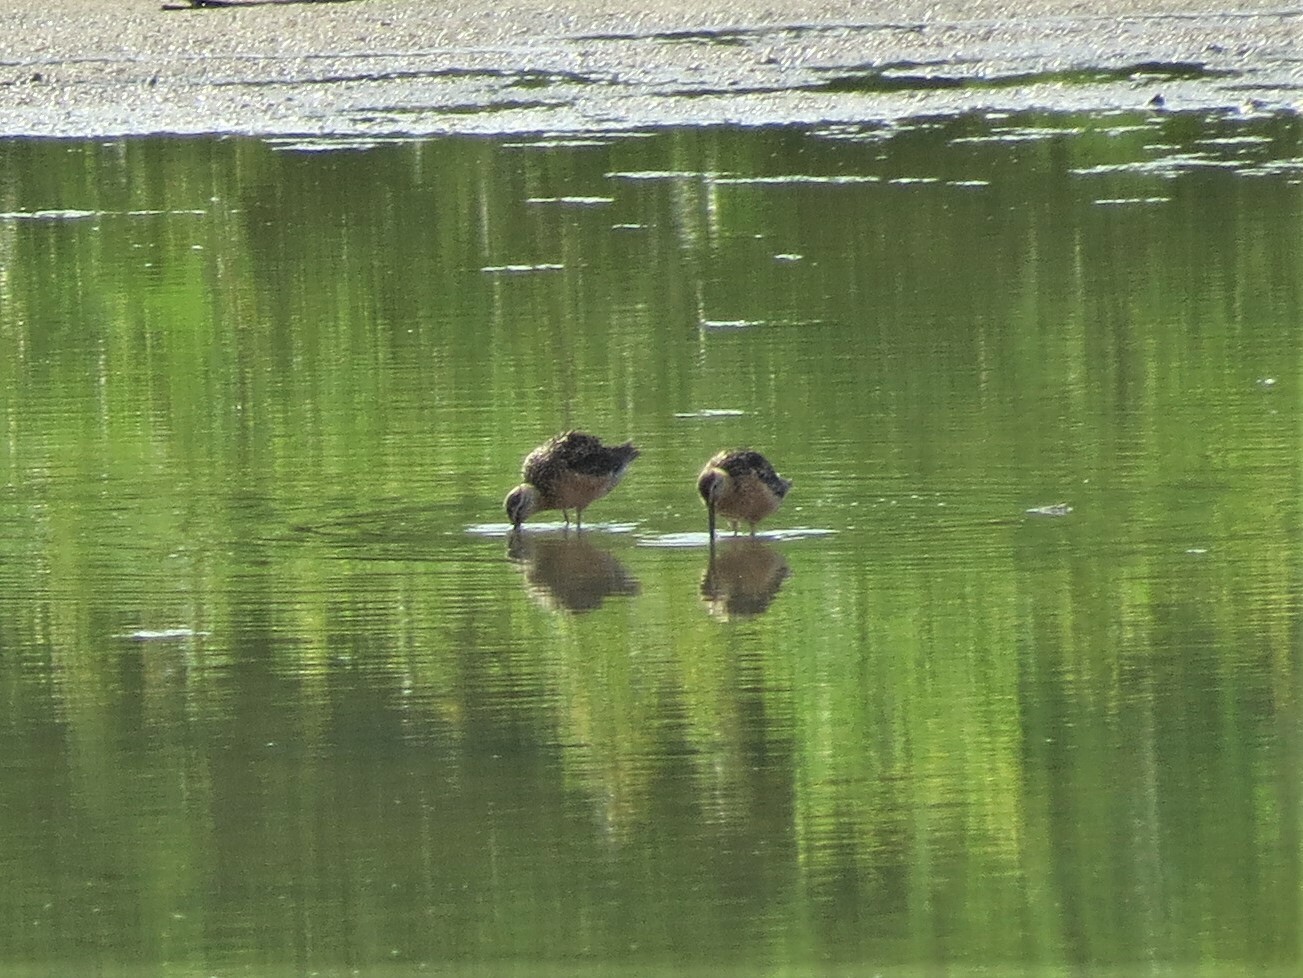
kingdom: Animalia
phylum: Chordata
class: Aves
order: Charadriiformes
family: Scolopacidae
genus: Limnodromus
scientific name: Limnodromus scolopaceus
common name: Long-billed dowitcher
